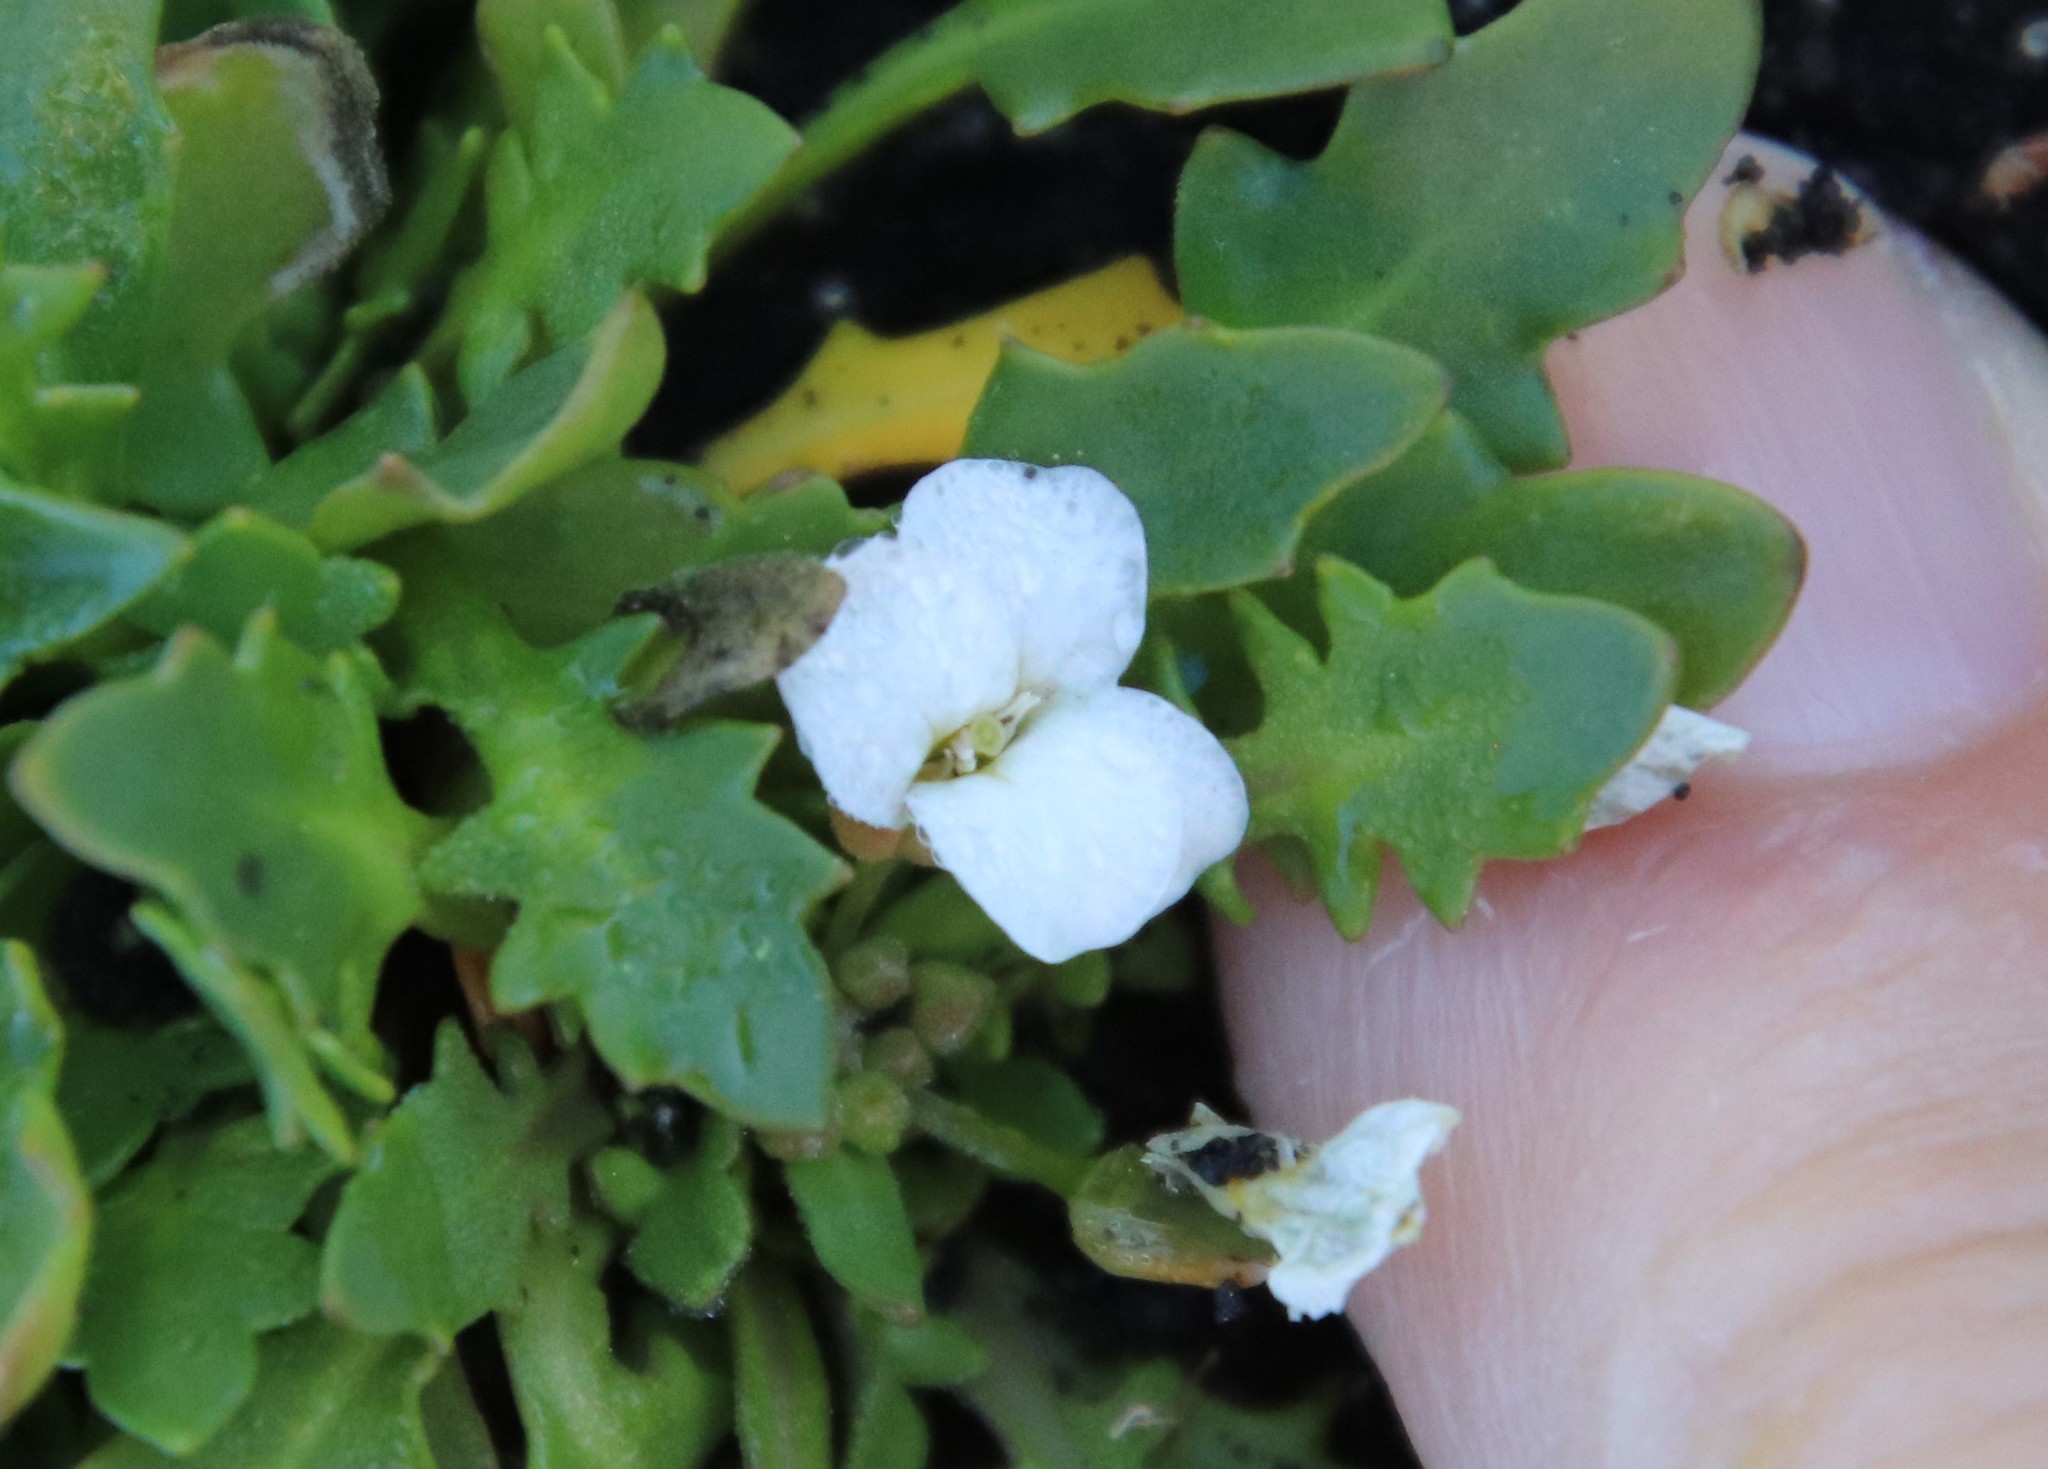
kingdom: Plantae
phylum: Tracheophyta
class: Magnoliopsida
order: Brassicales
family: Brassicaceae
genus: Cakile
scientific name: Cakile arctica
